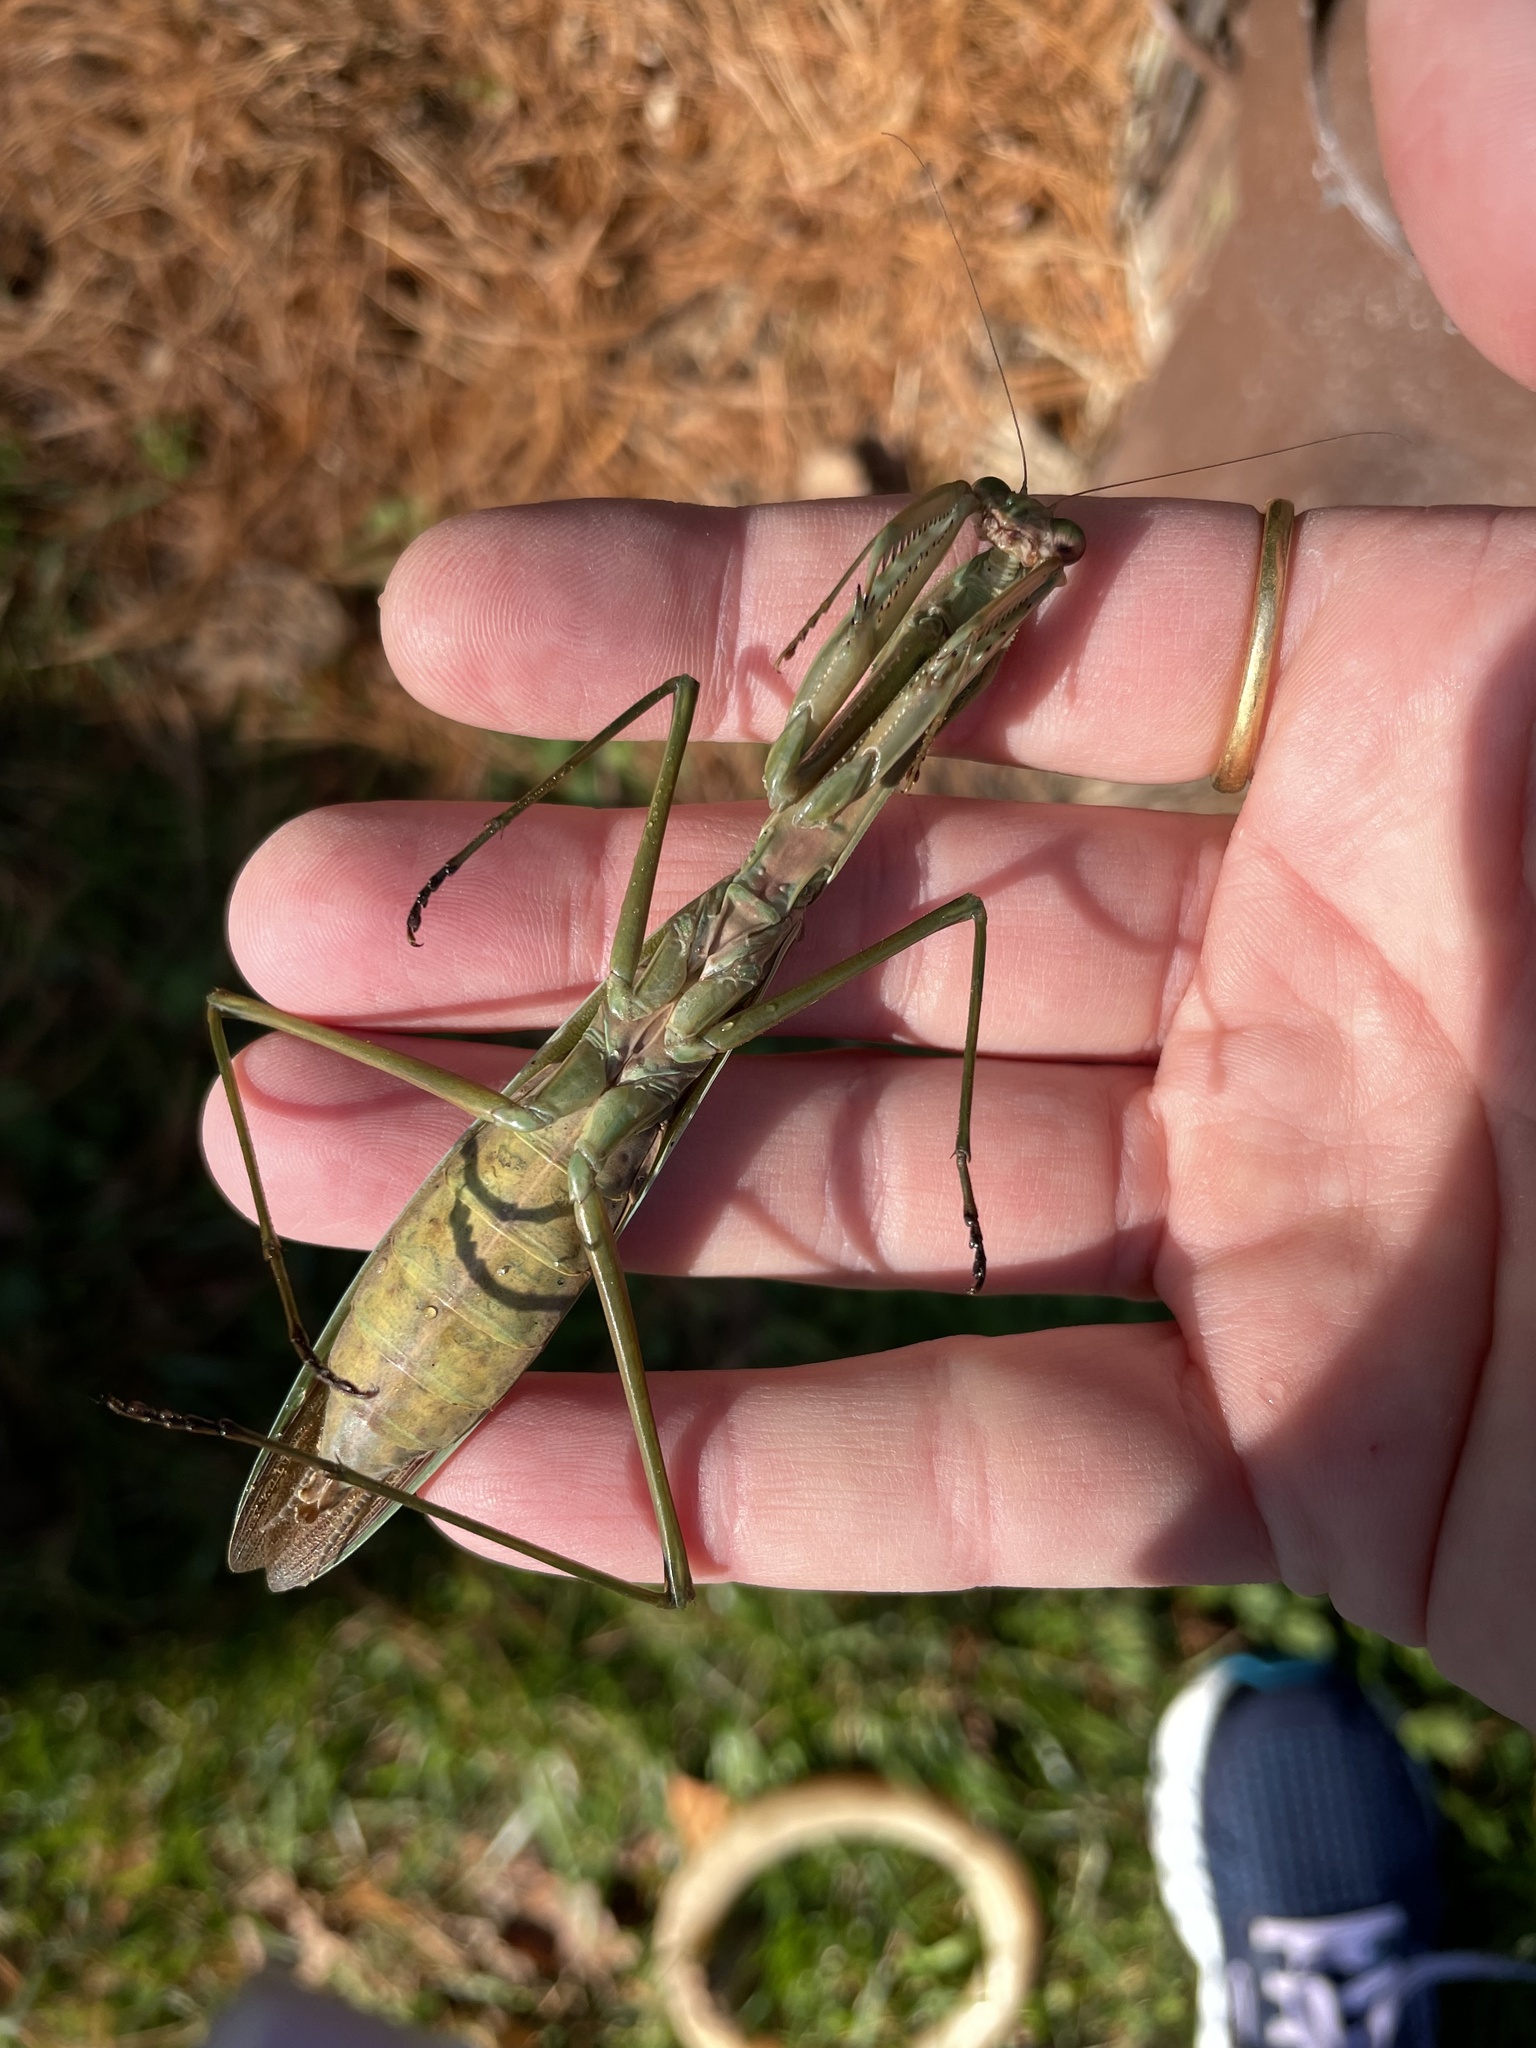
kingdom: Animalia
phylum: Arthropoda
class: Insecta
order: Mantodea
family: Mantidae
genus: Tenodera
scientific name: Tenodera sinensis
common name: Chinese mantis
